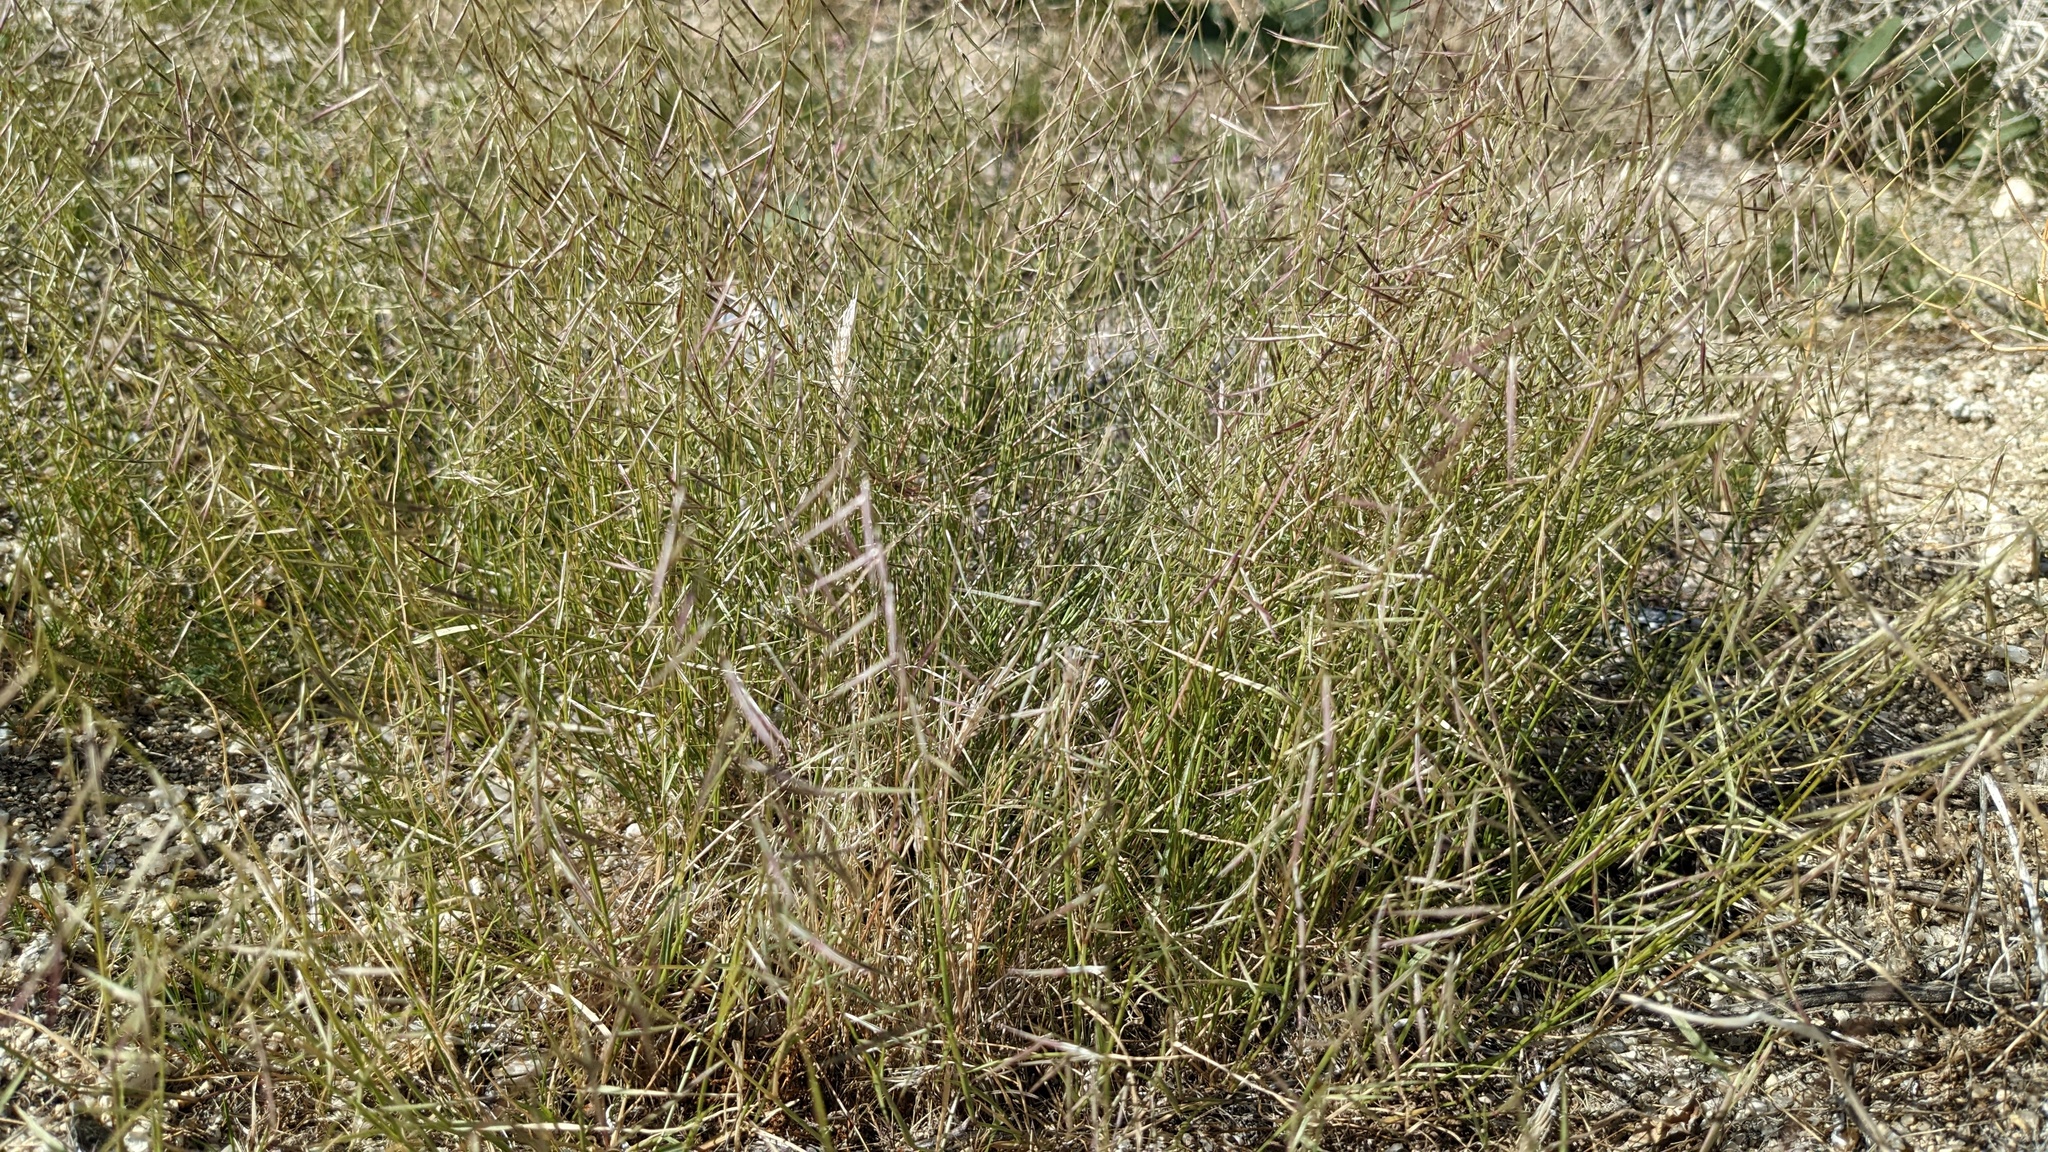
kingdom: Plantae
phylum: Tracheophyta
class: Liliopsida
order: Poales
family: Poaceae
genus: Bouteloua
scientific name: Bouteloua aristidoides
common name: Needle grama
